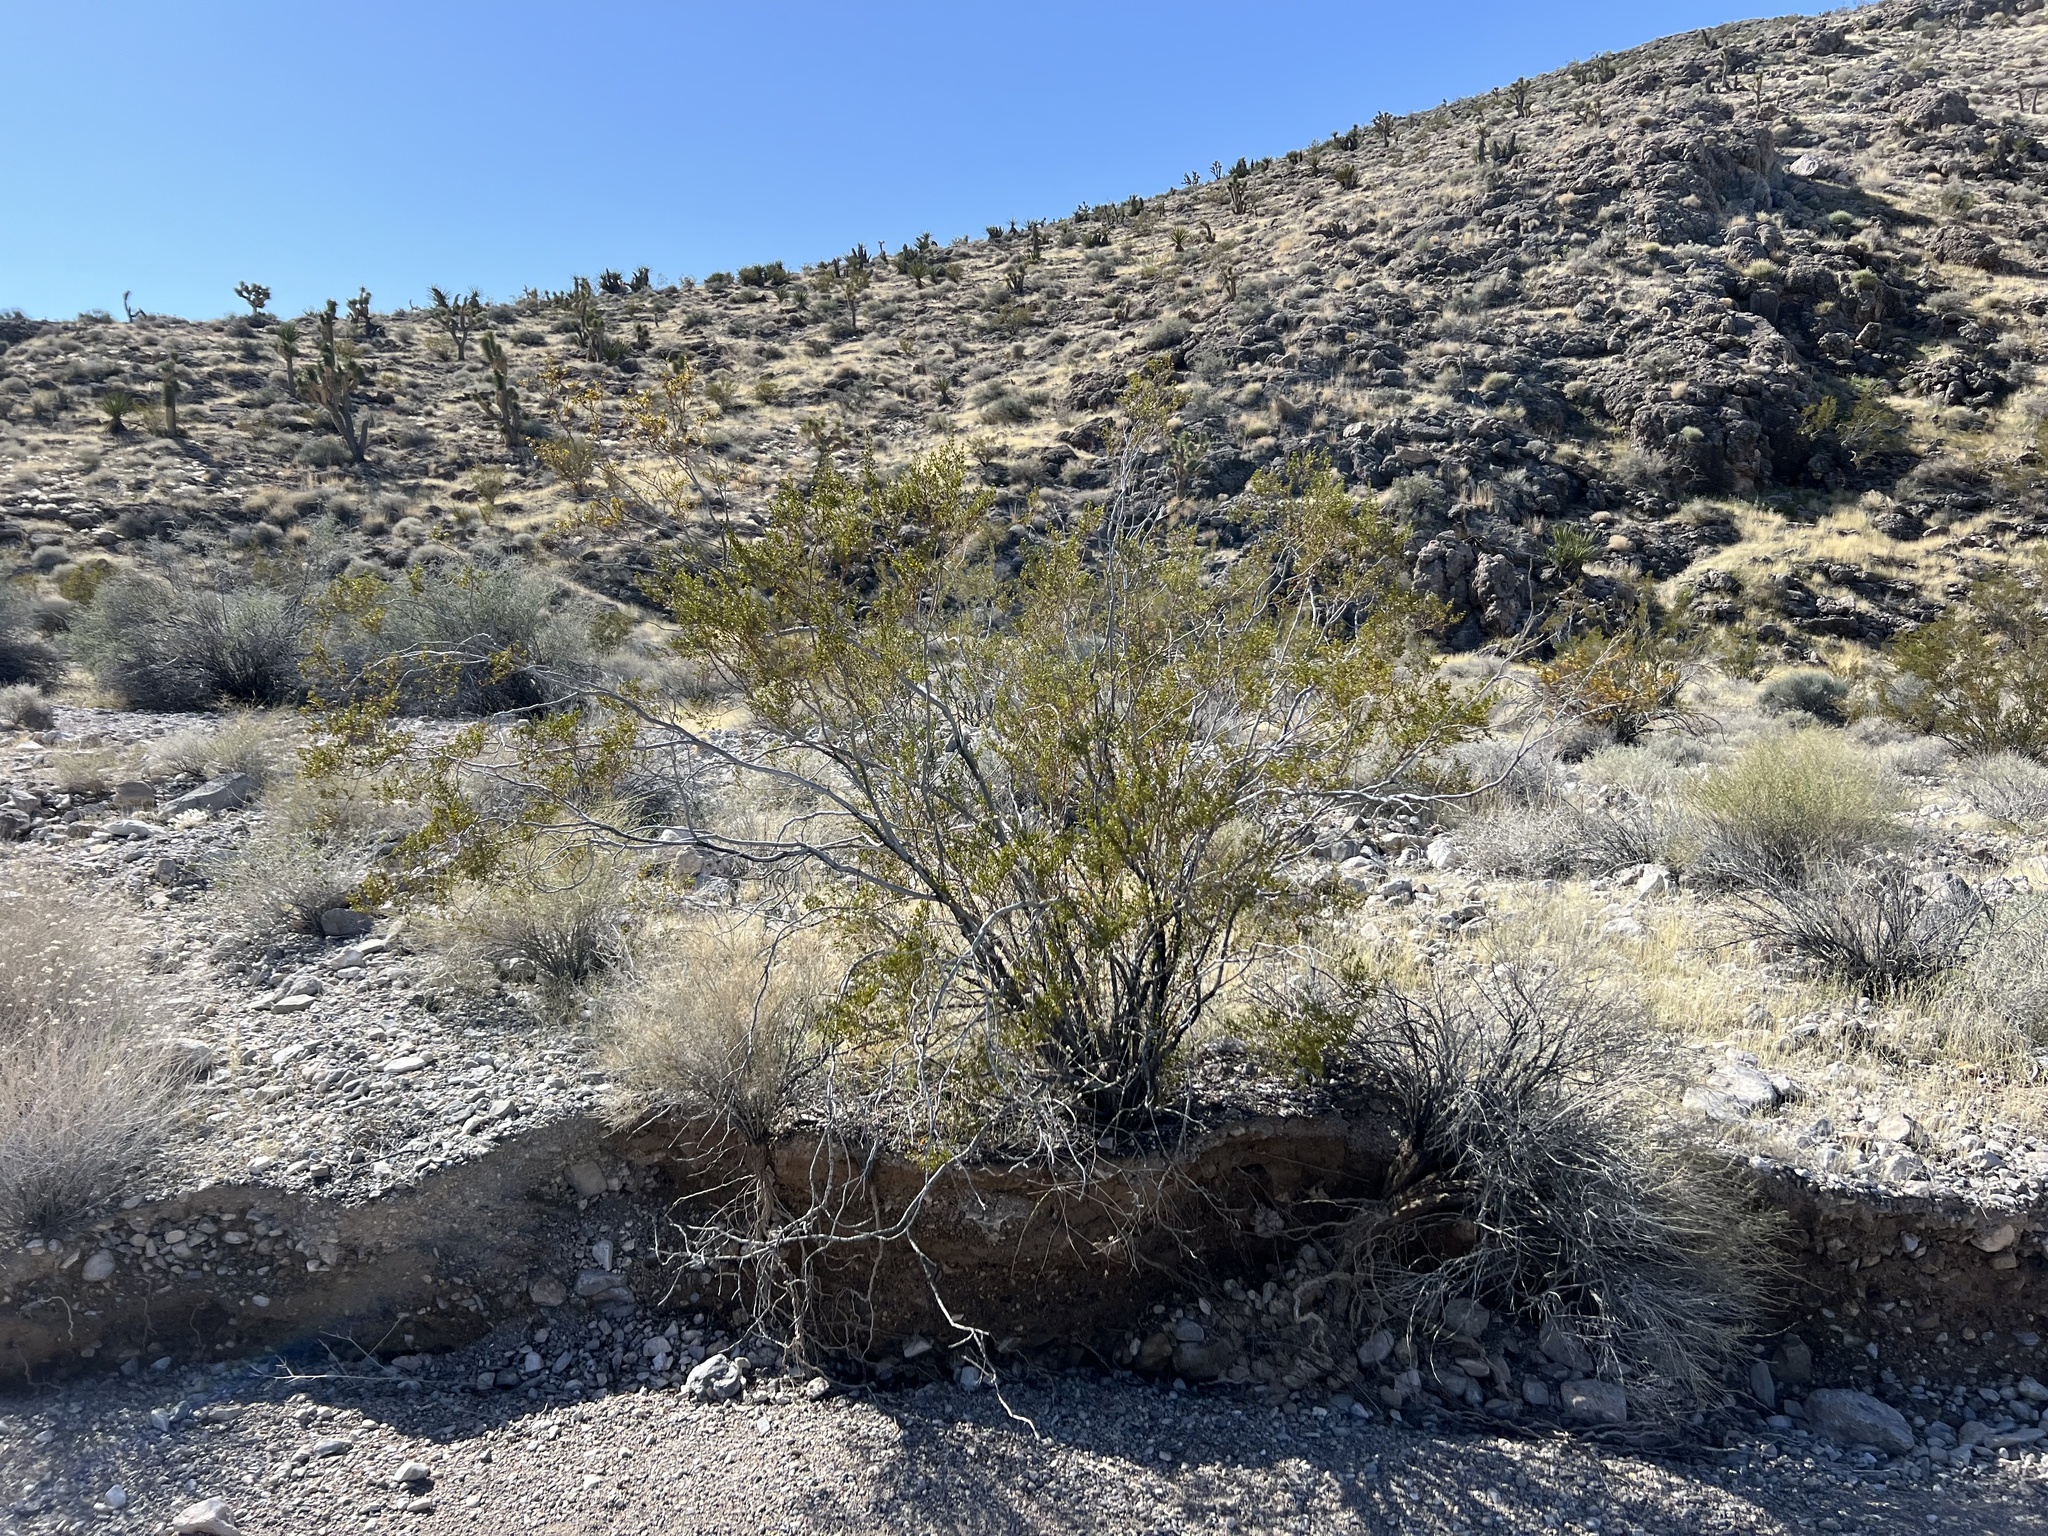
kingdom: Plantae
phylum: Tracheophyta
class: Magnoliopsida
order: Zygophyllales
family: Zygophyllaceae
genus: Larrea
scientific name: Larrea tridentata
